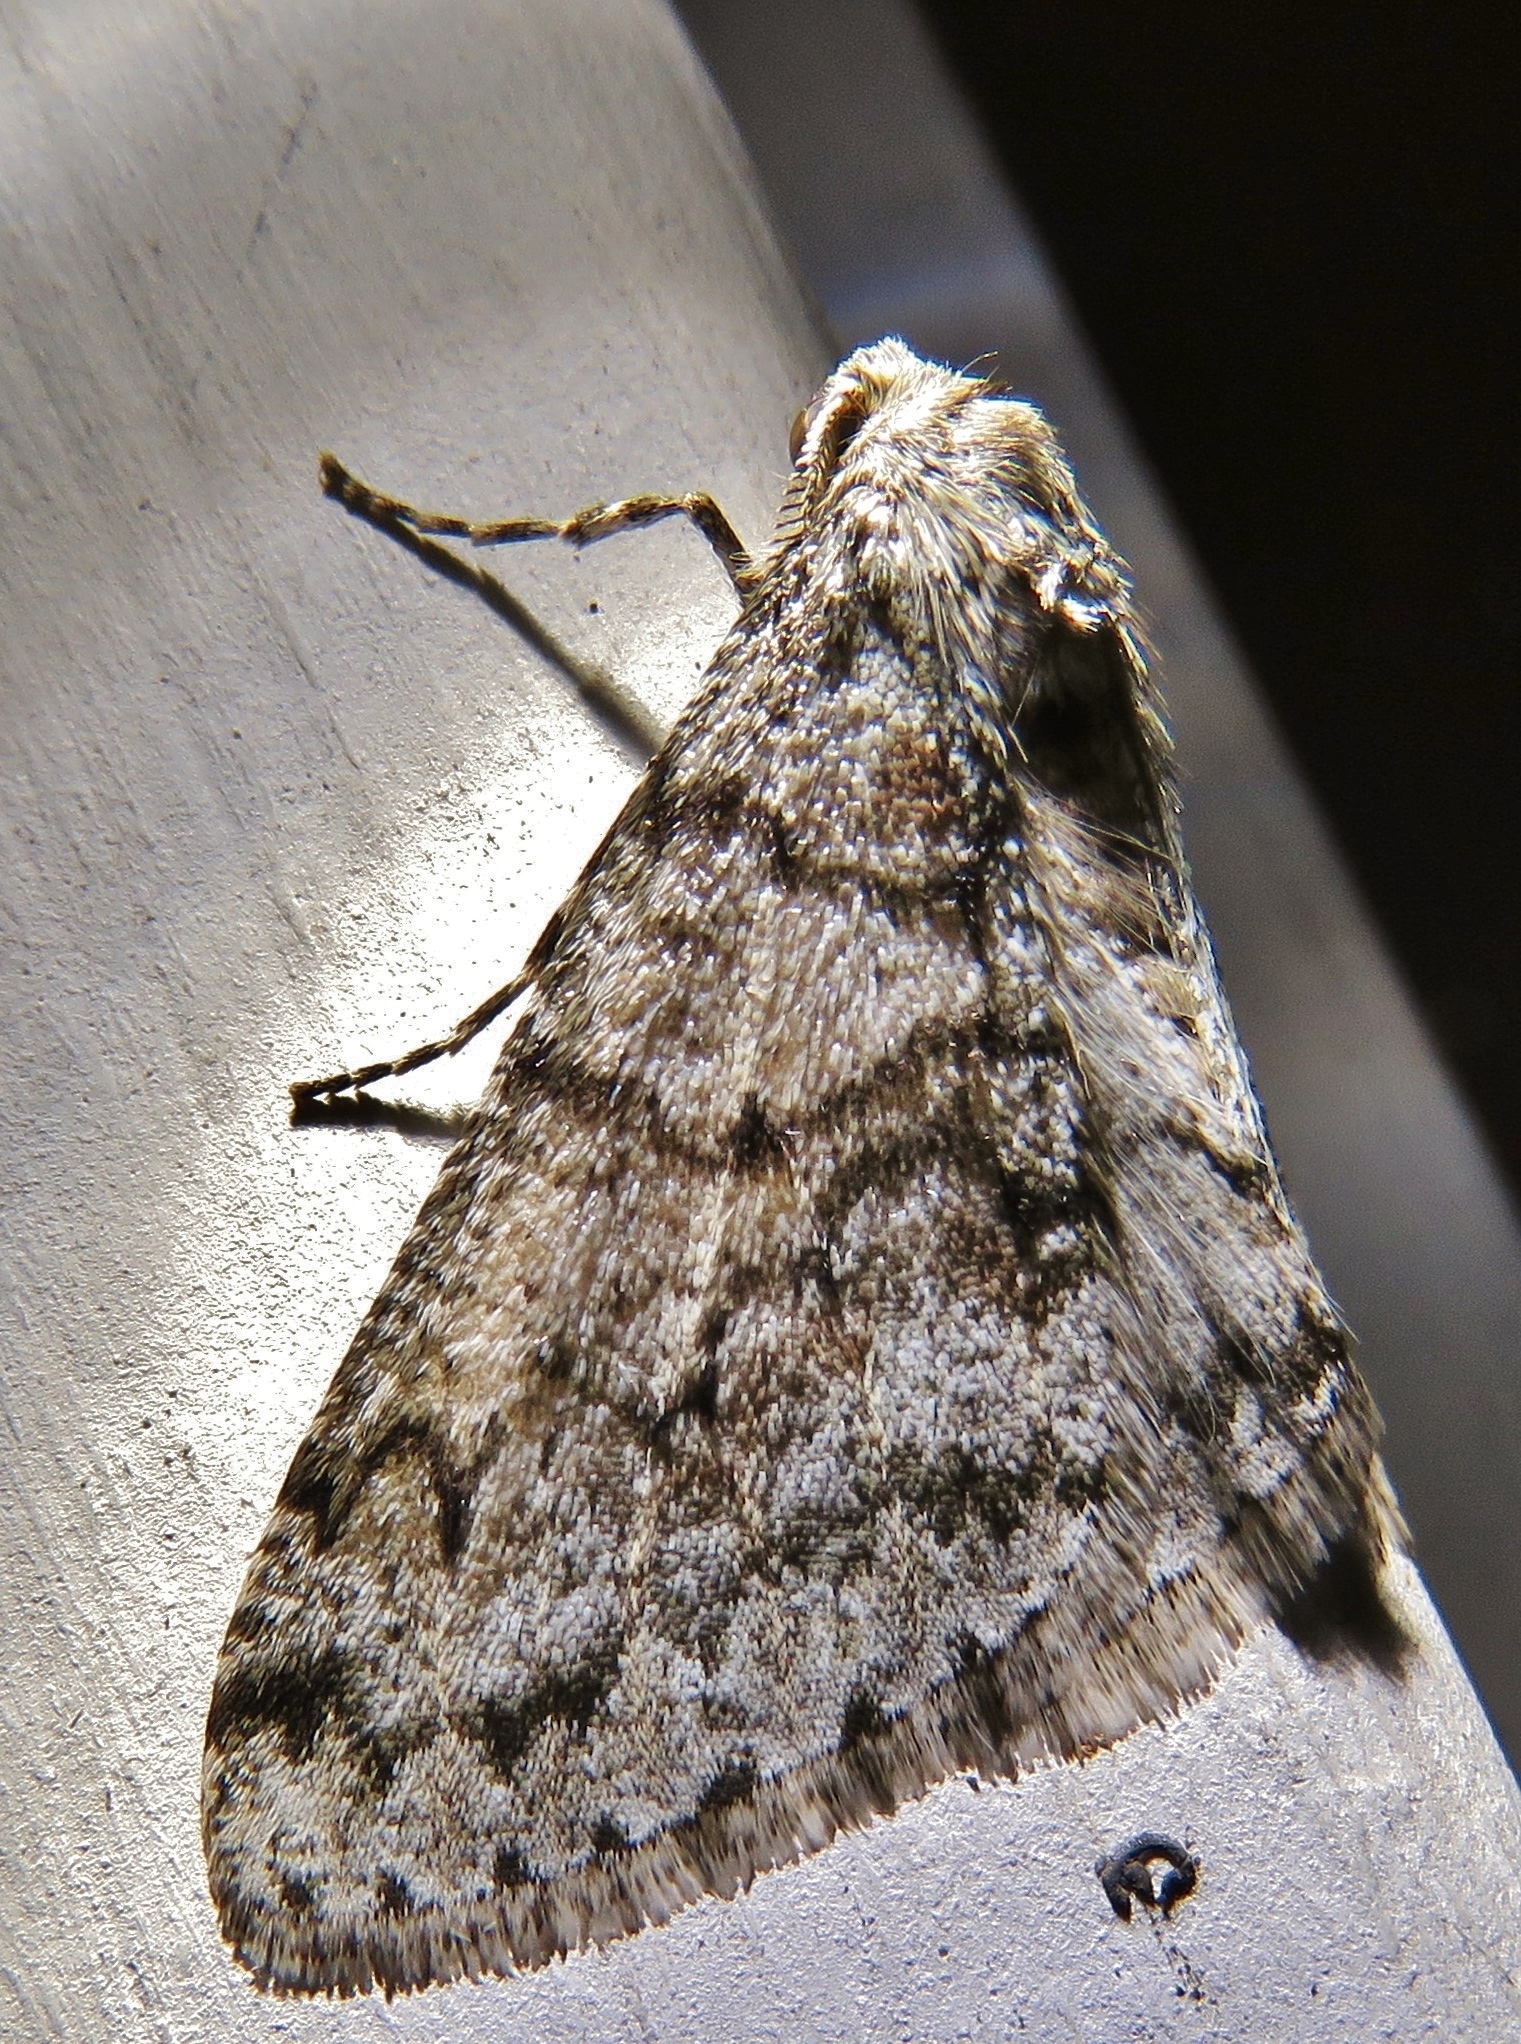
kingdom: Animalia
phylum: Arthropoda
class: Insecta
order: Lepidoptera
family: Geometridae
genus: Phigalia
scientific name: Phigalia denticulata
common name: Toothed phigalia
